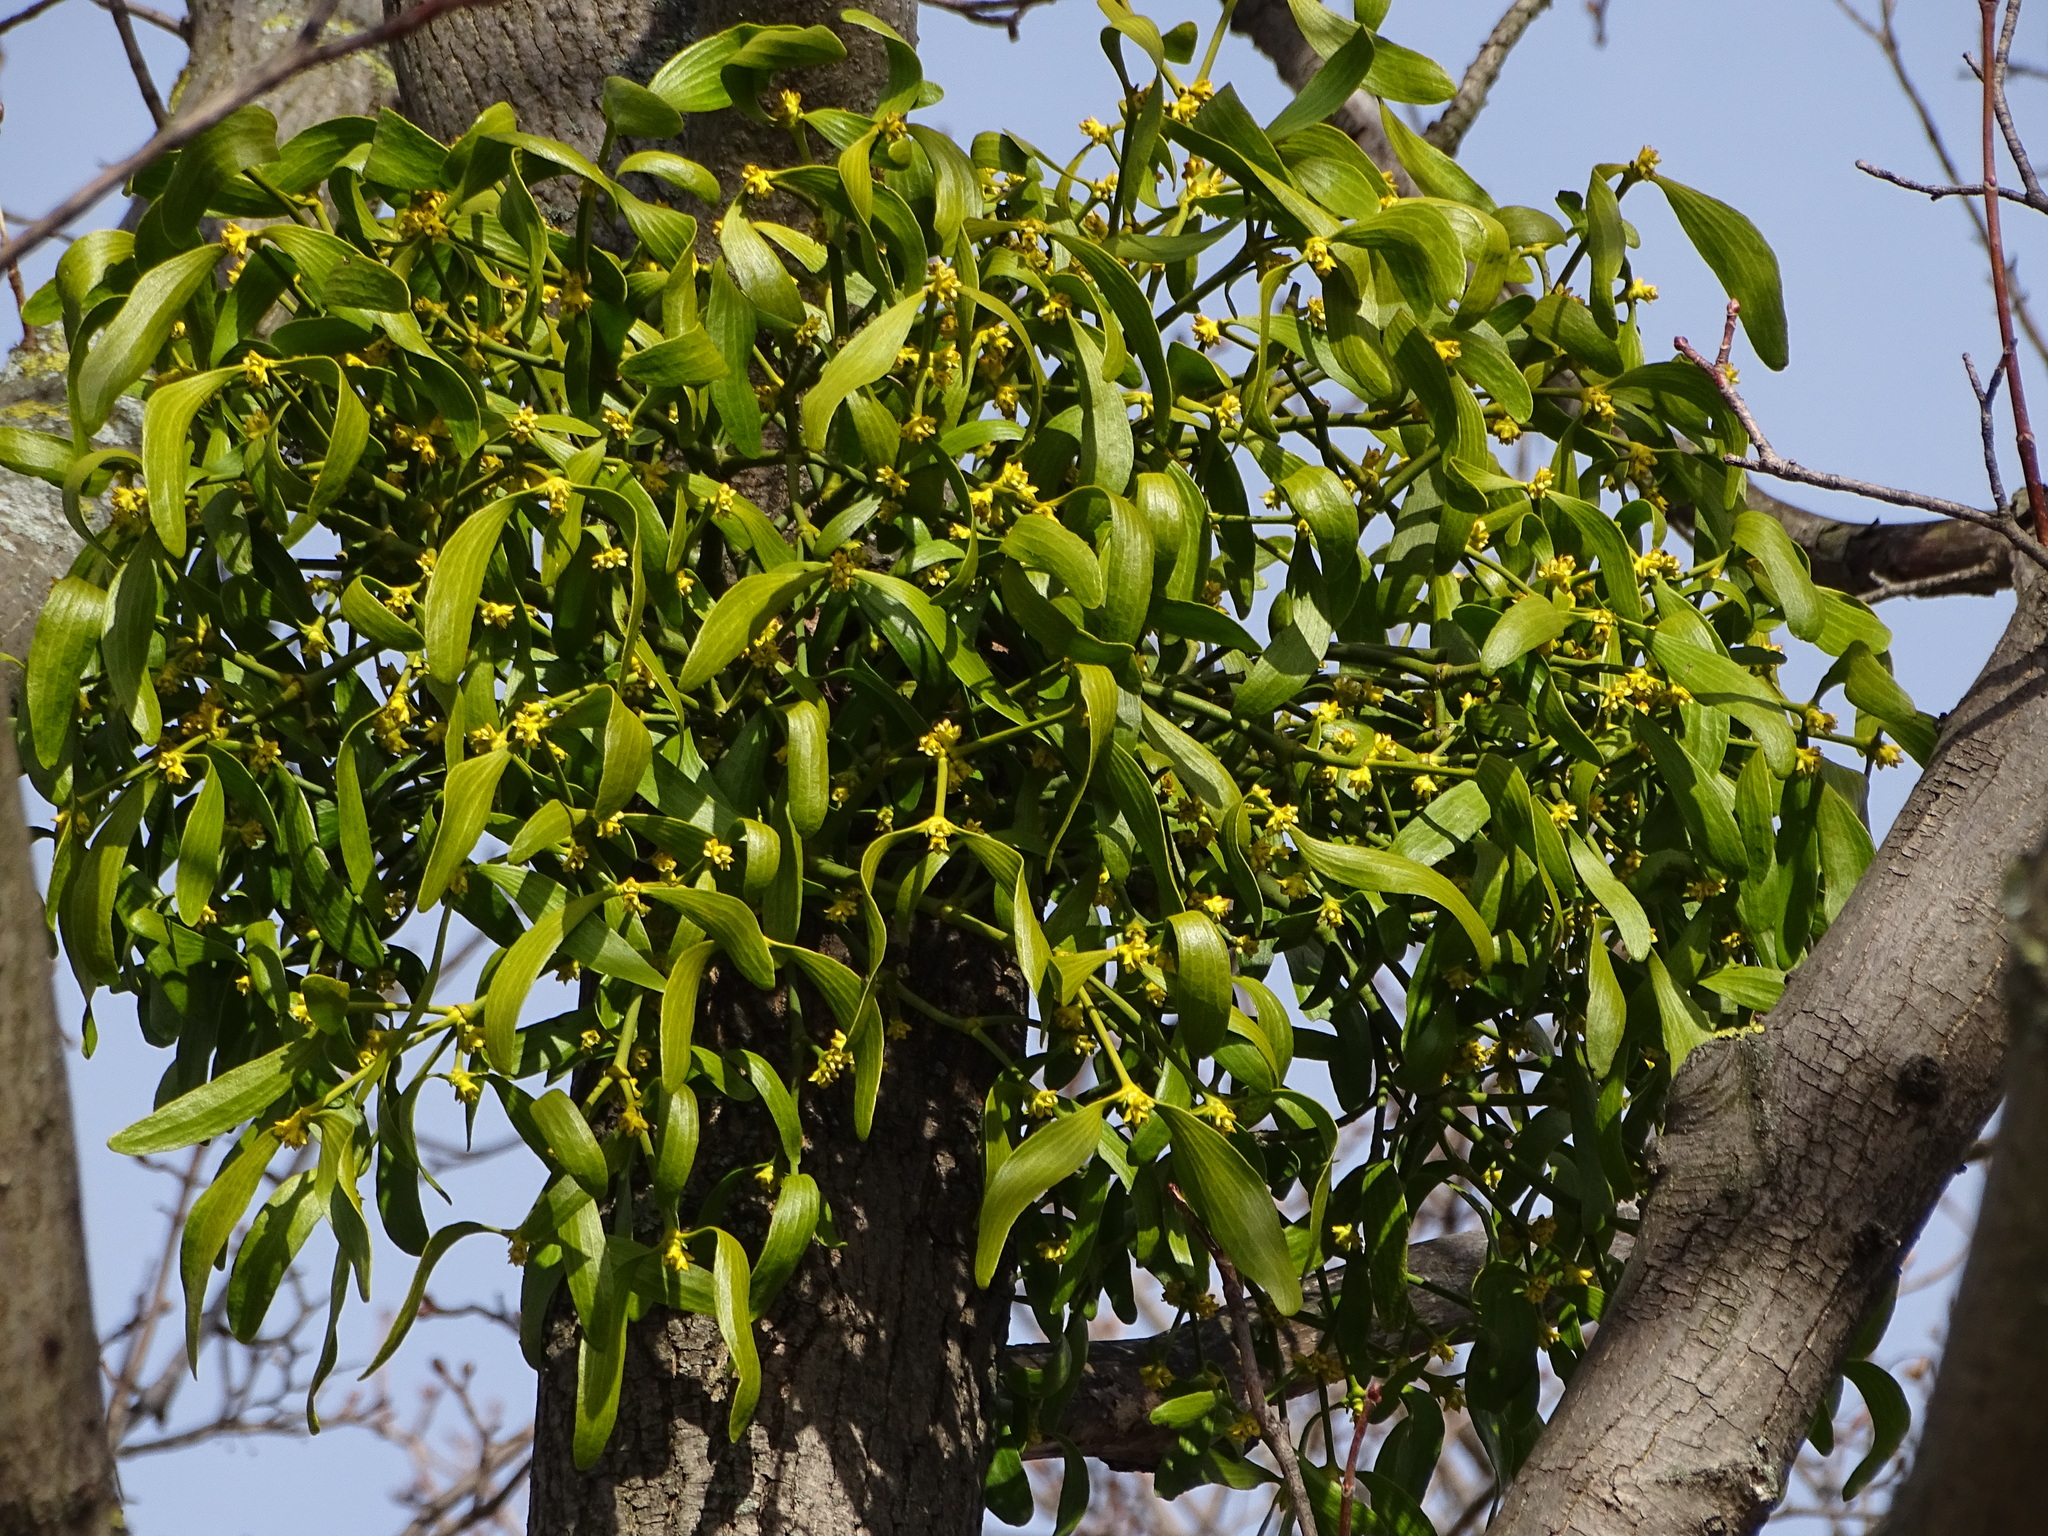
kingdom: Plantae
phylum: Tracheophyta
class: Magnoliopsida
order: Santalales
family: Viscaceae
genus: Viscum
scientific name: Viscum album
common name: Mistletoe
